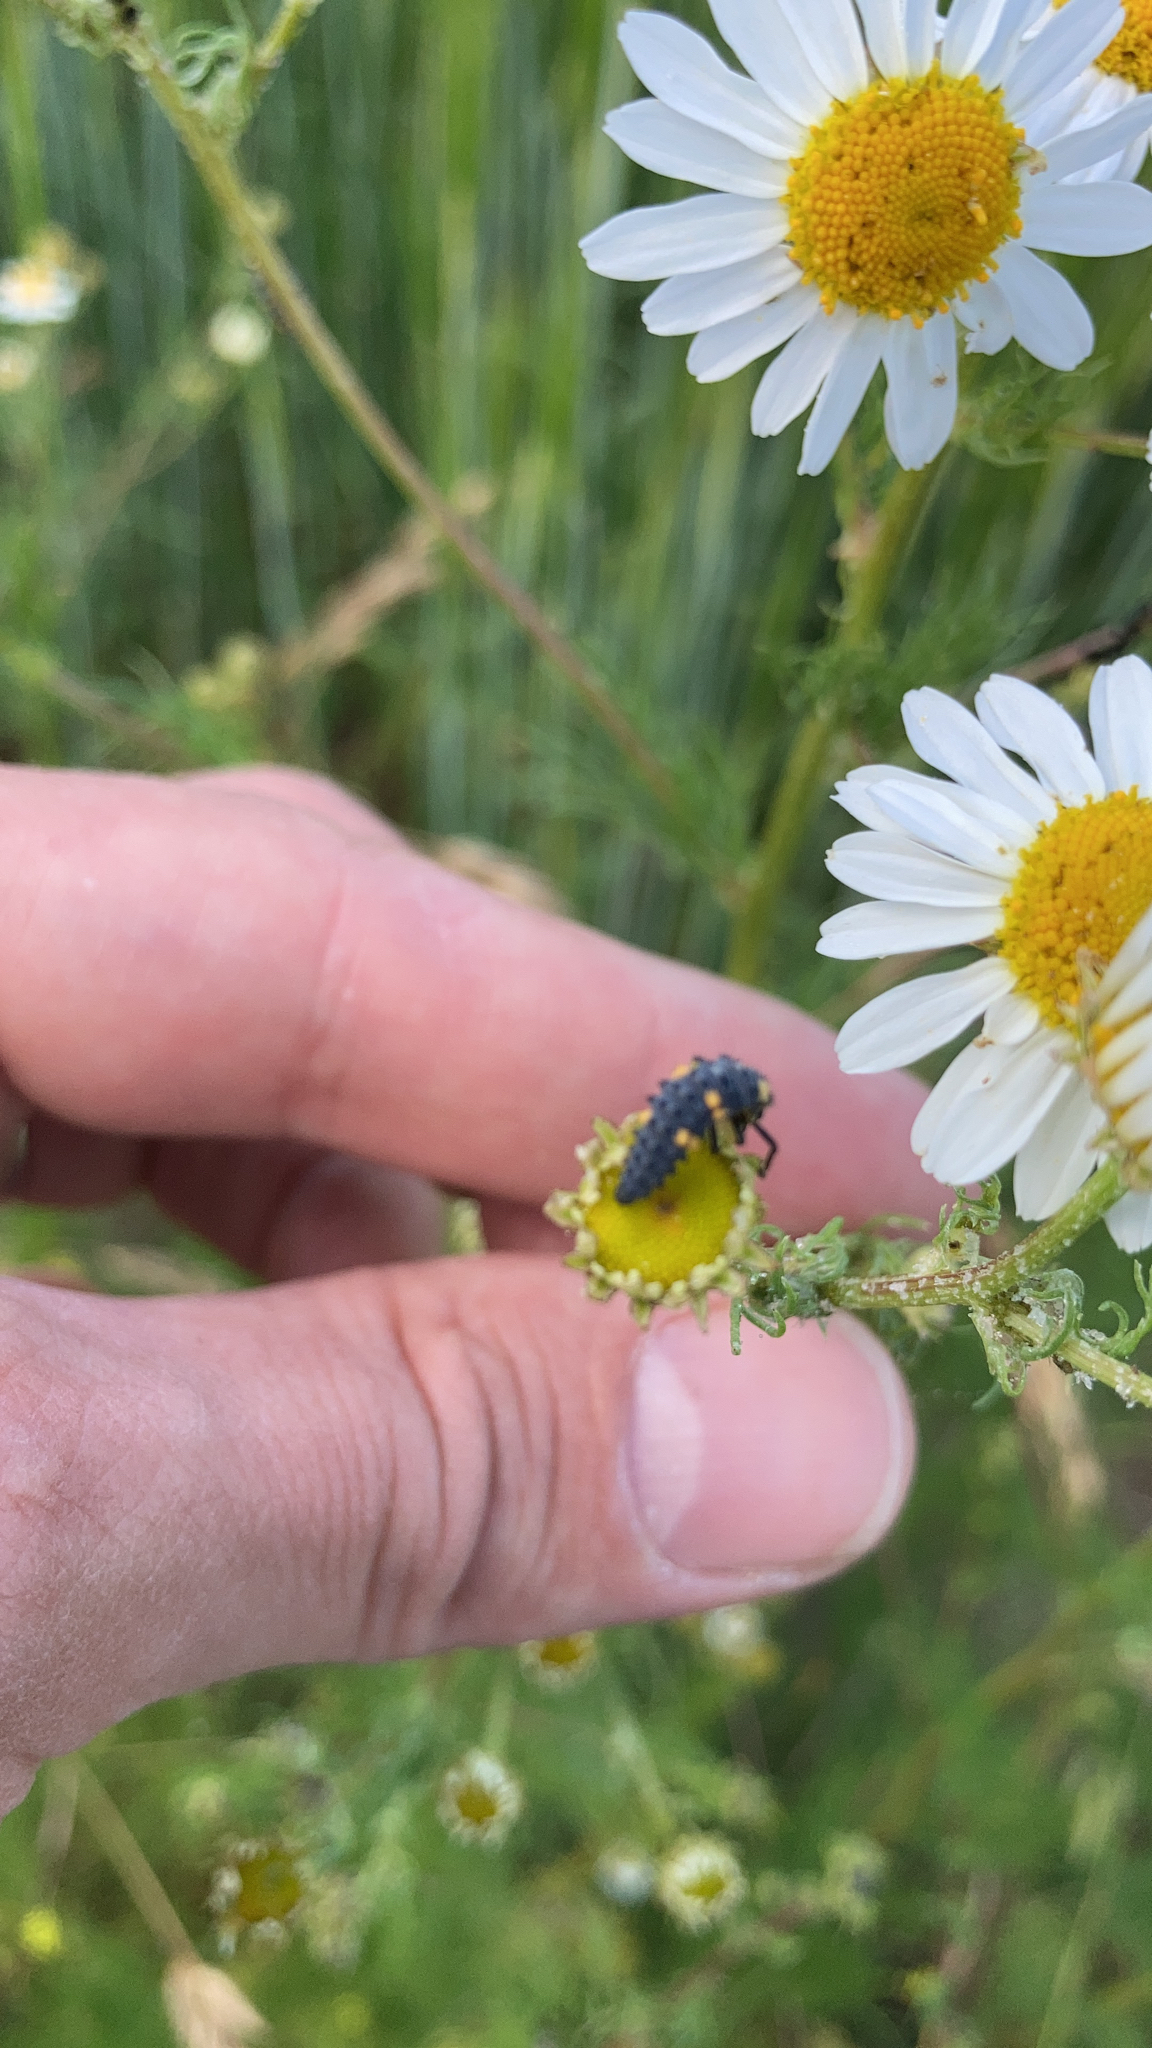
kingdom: Animalia
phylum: Arthropoda
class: Insecta
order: Coleoptera
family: Coccinellidae
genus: Coccinella
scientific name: Coccinella septempunctata
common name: Sevenspotted lady beetle
